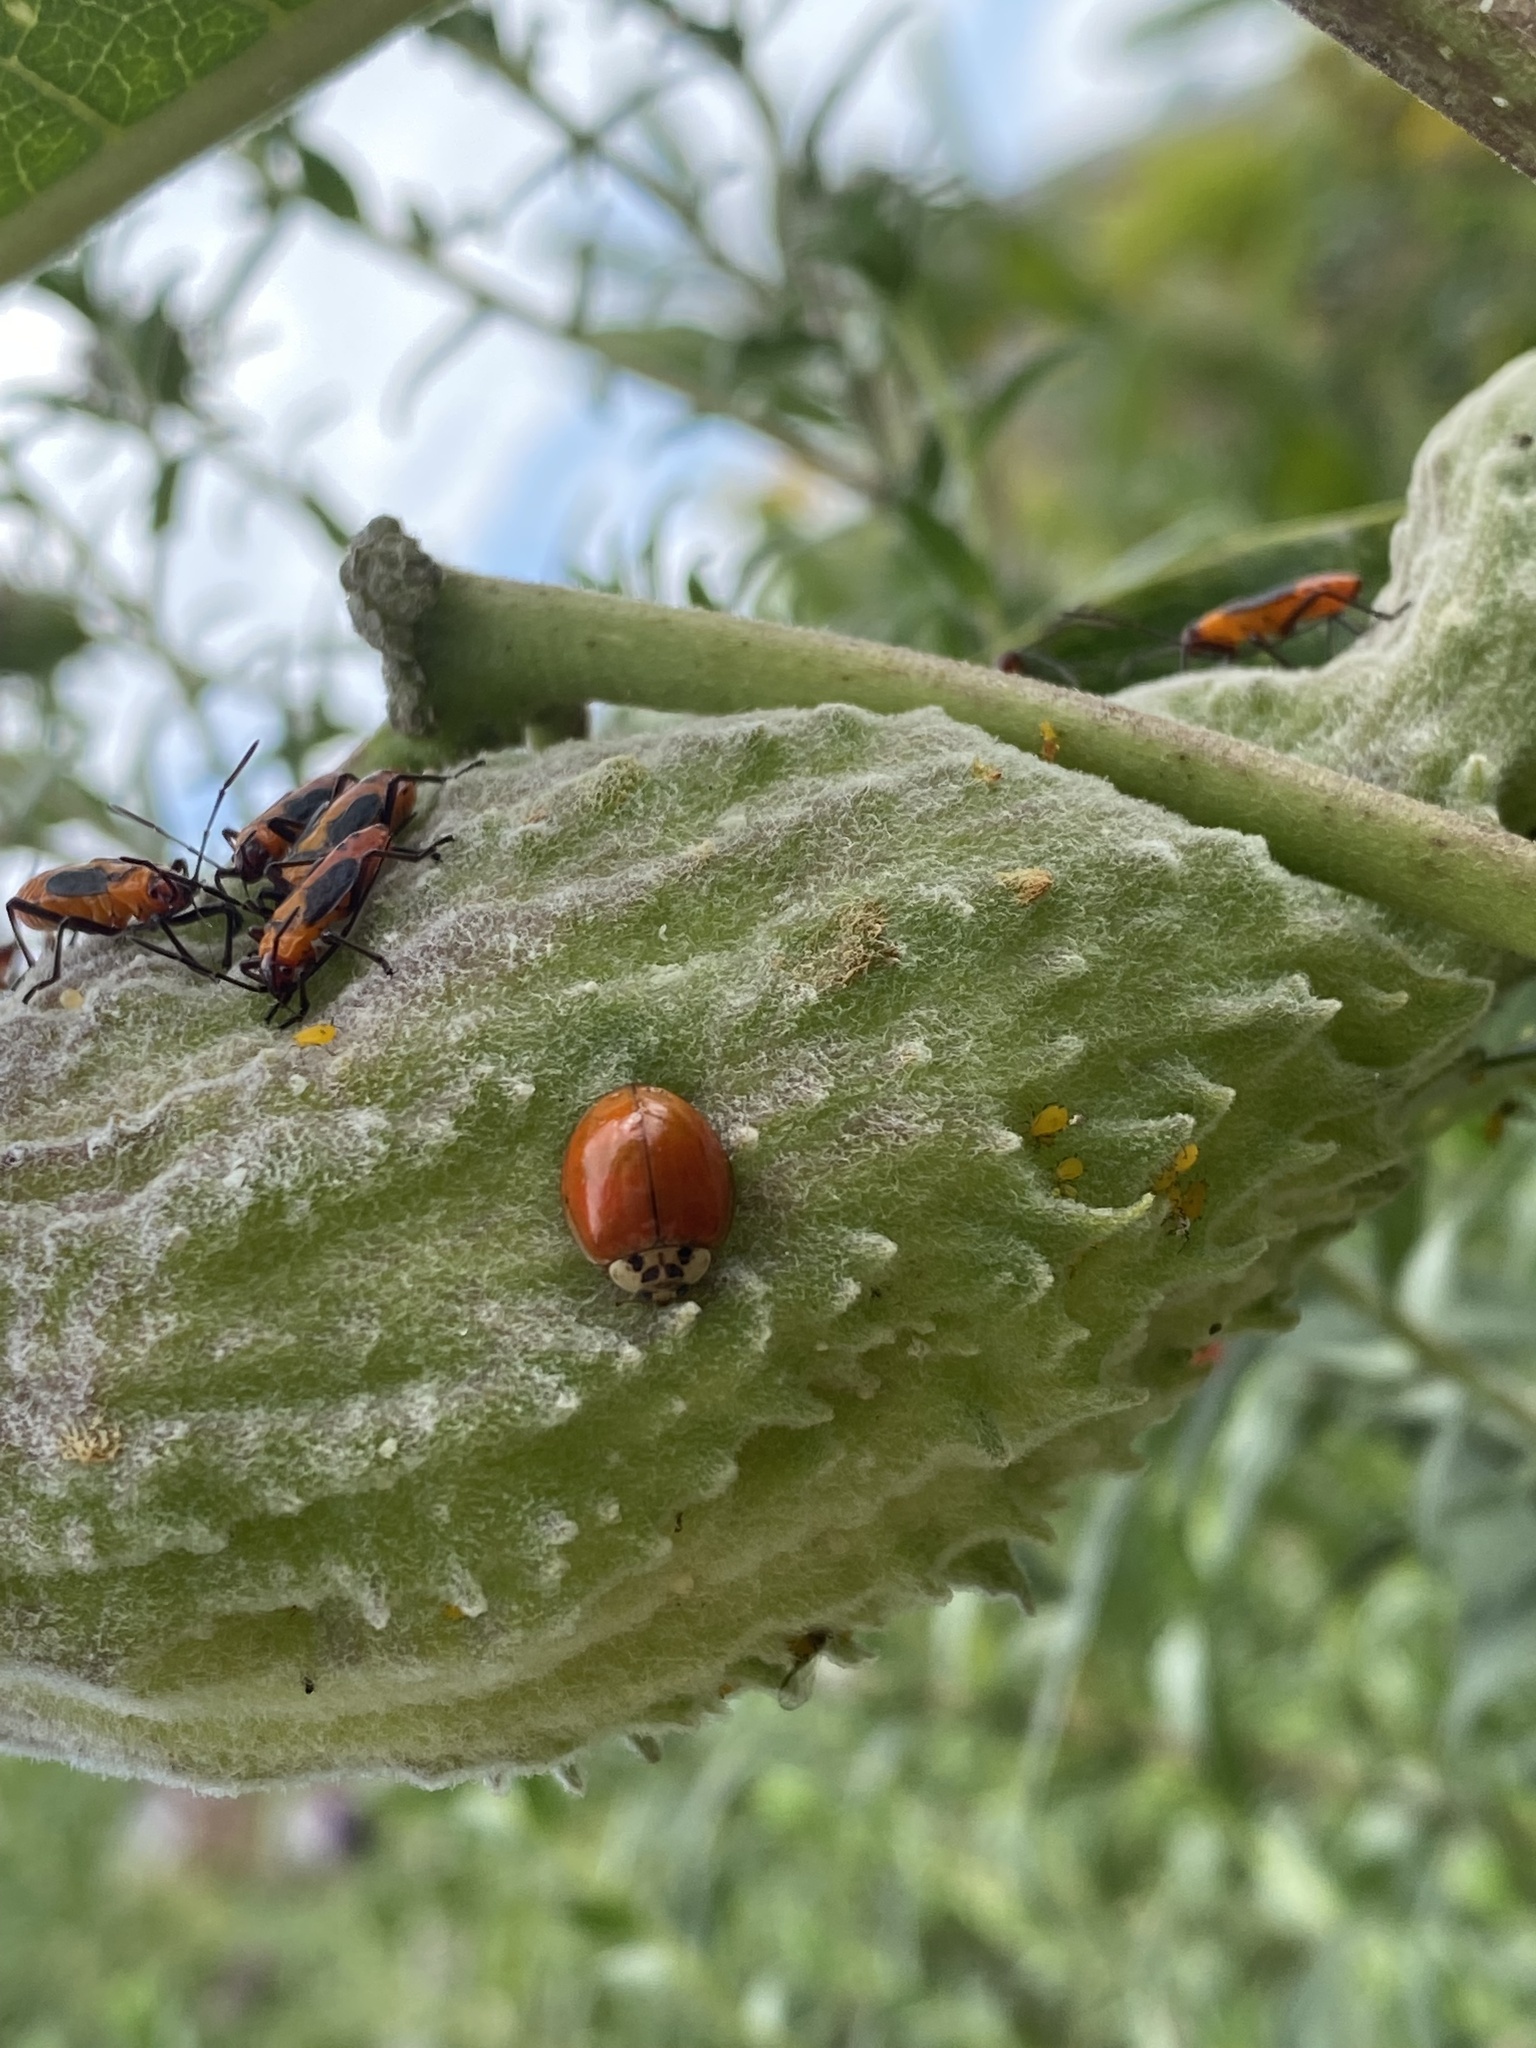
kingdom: Animalia
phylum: Arthropoda
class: Insecta
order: Coleoptera
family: Coccinellidae
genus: Harmonia
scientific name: Harmonia axyridis
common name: Harlequin ladybird
